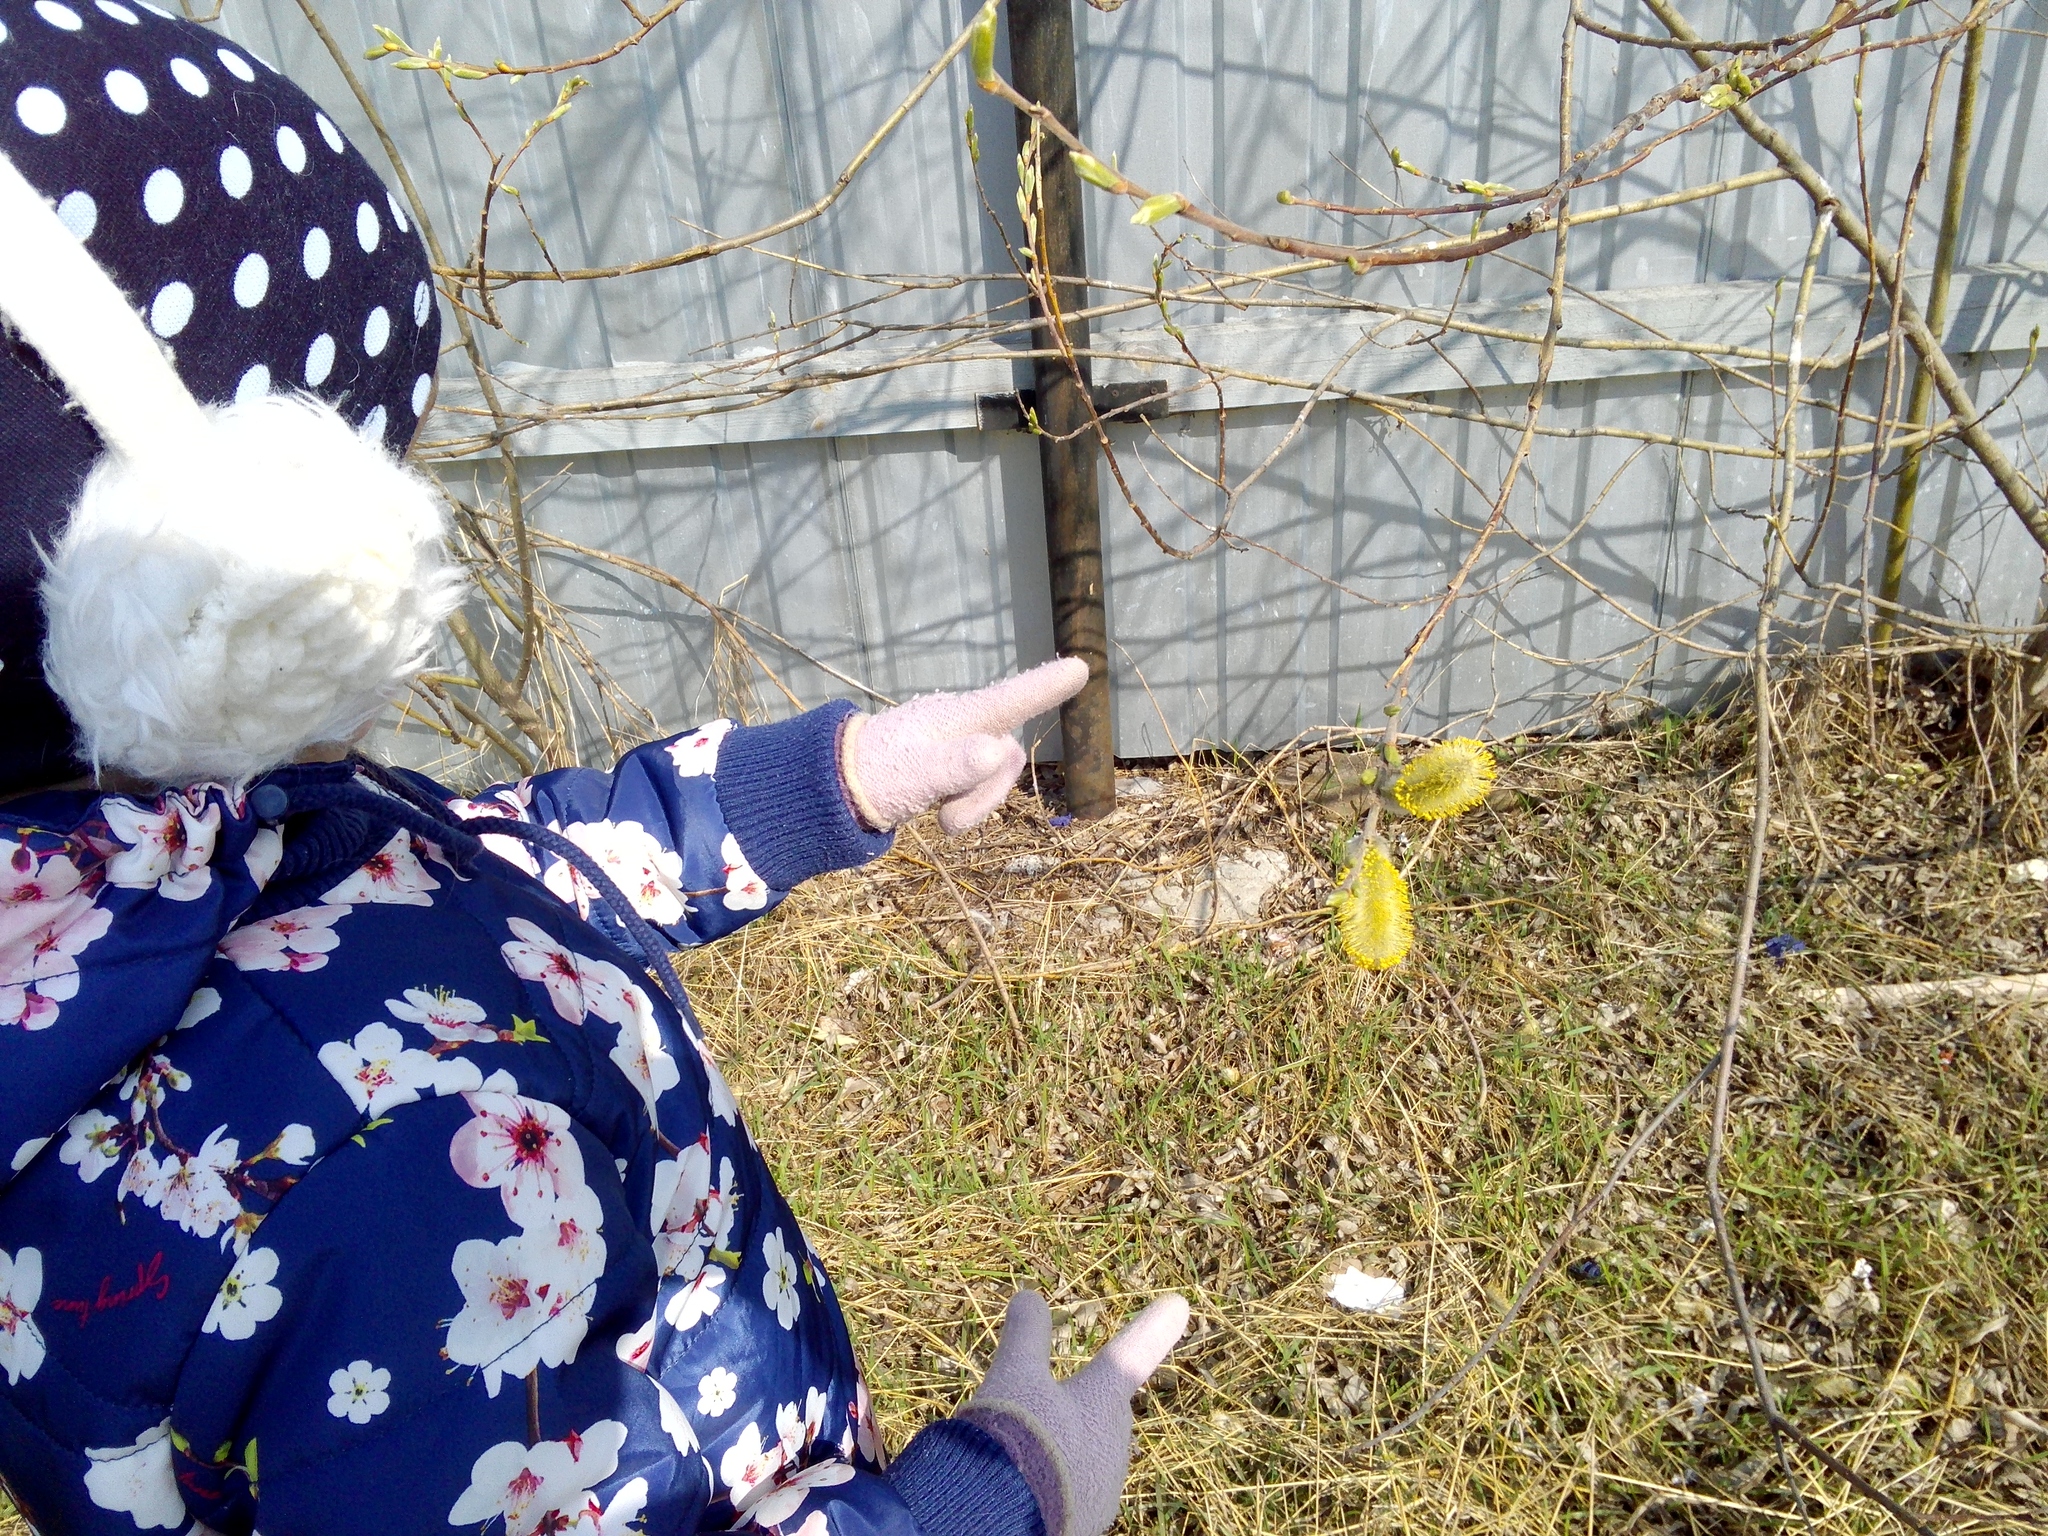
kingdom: Plantae
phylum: Tracheophyta
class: Magnoliopsida
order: Malpighiales
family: Salicaceae
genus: Salix
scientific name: Salix caprea
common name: Goat willow
